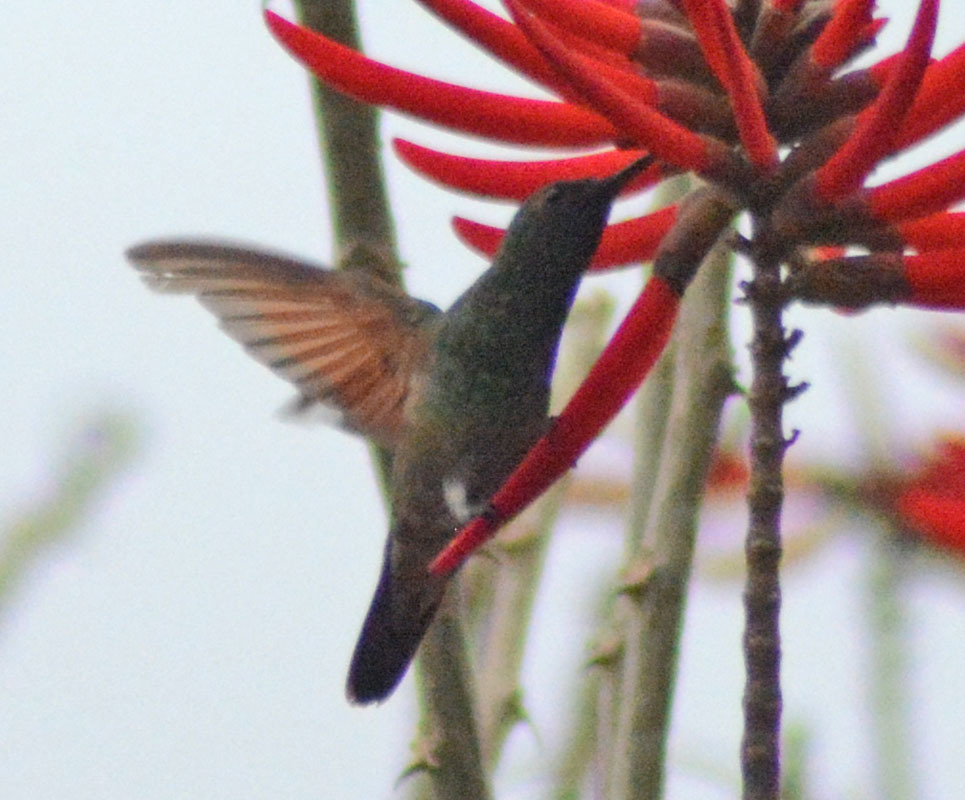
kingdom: Animalia
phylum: Chordata
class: Aves
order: Apodiformes
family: Trochilidae
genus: Saucerottia
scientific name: Saucerottia beryllina
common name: Berylline hummingbird
